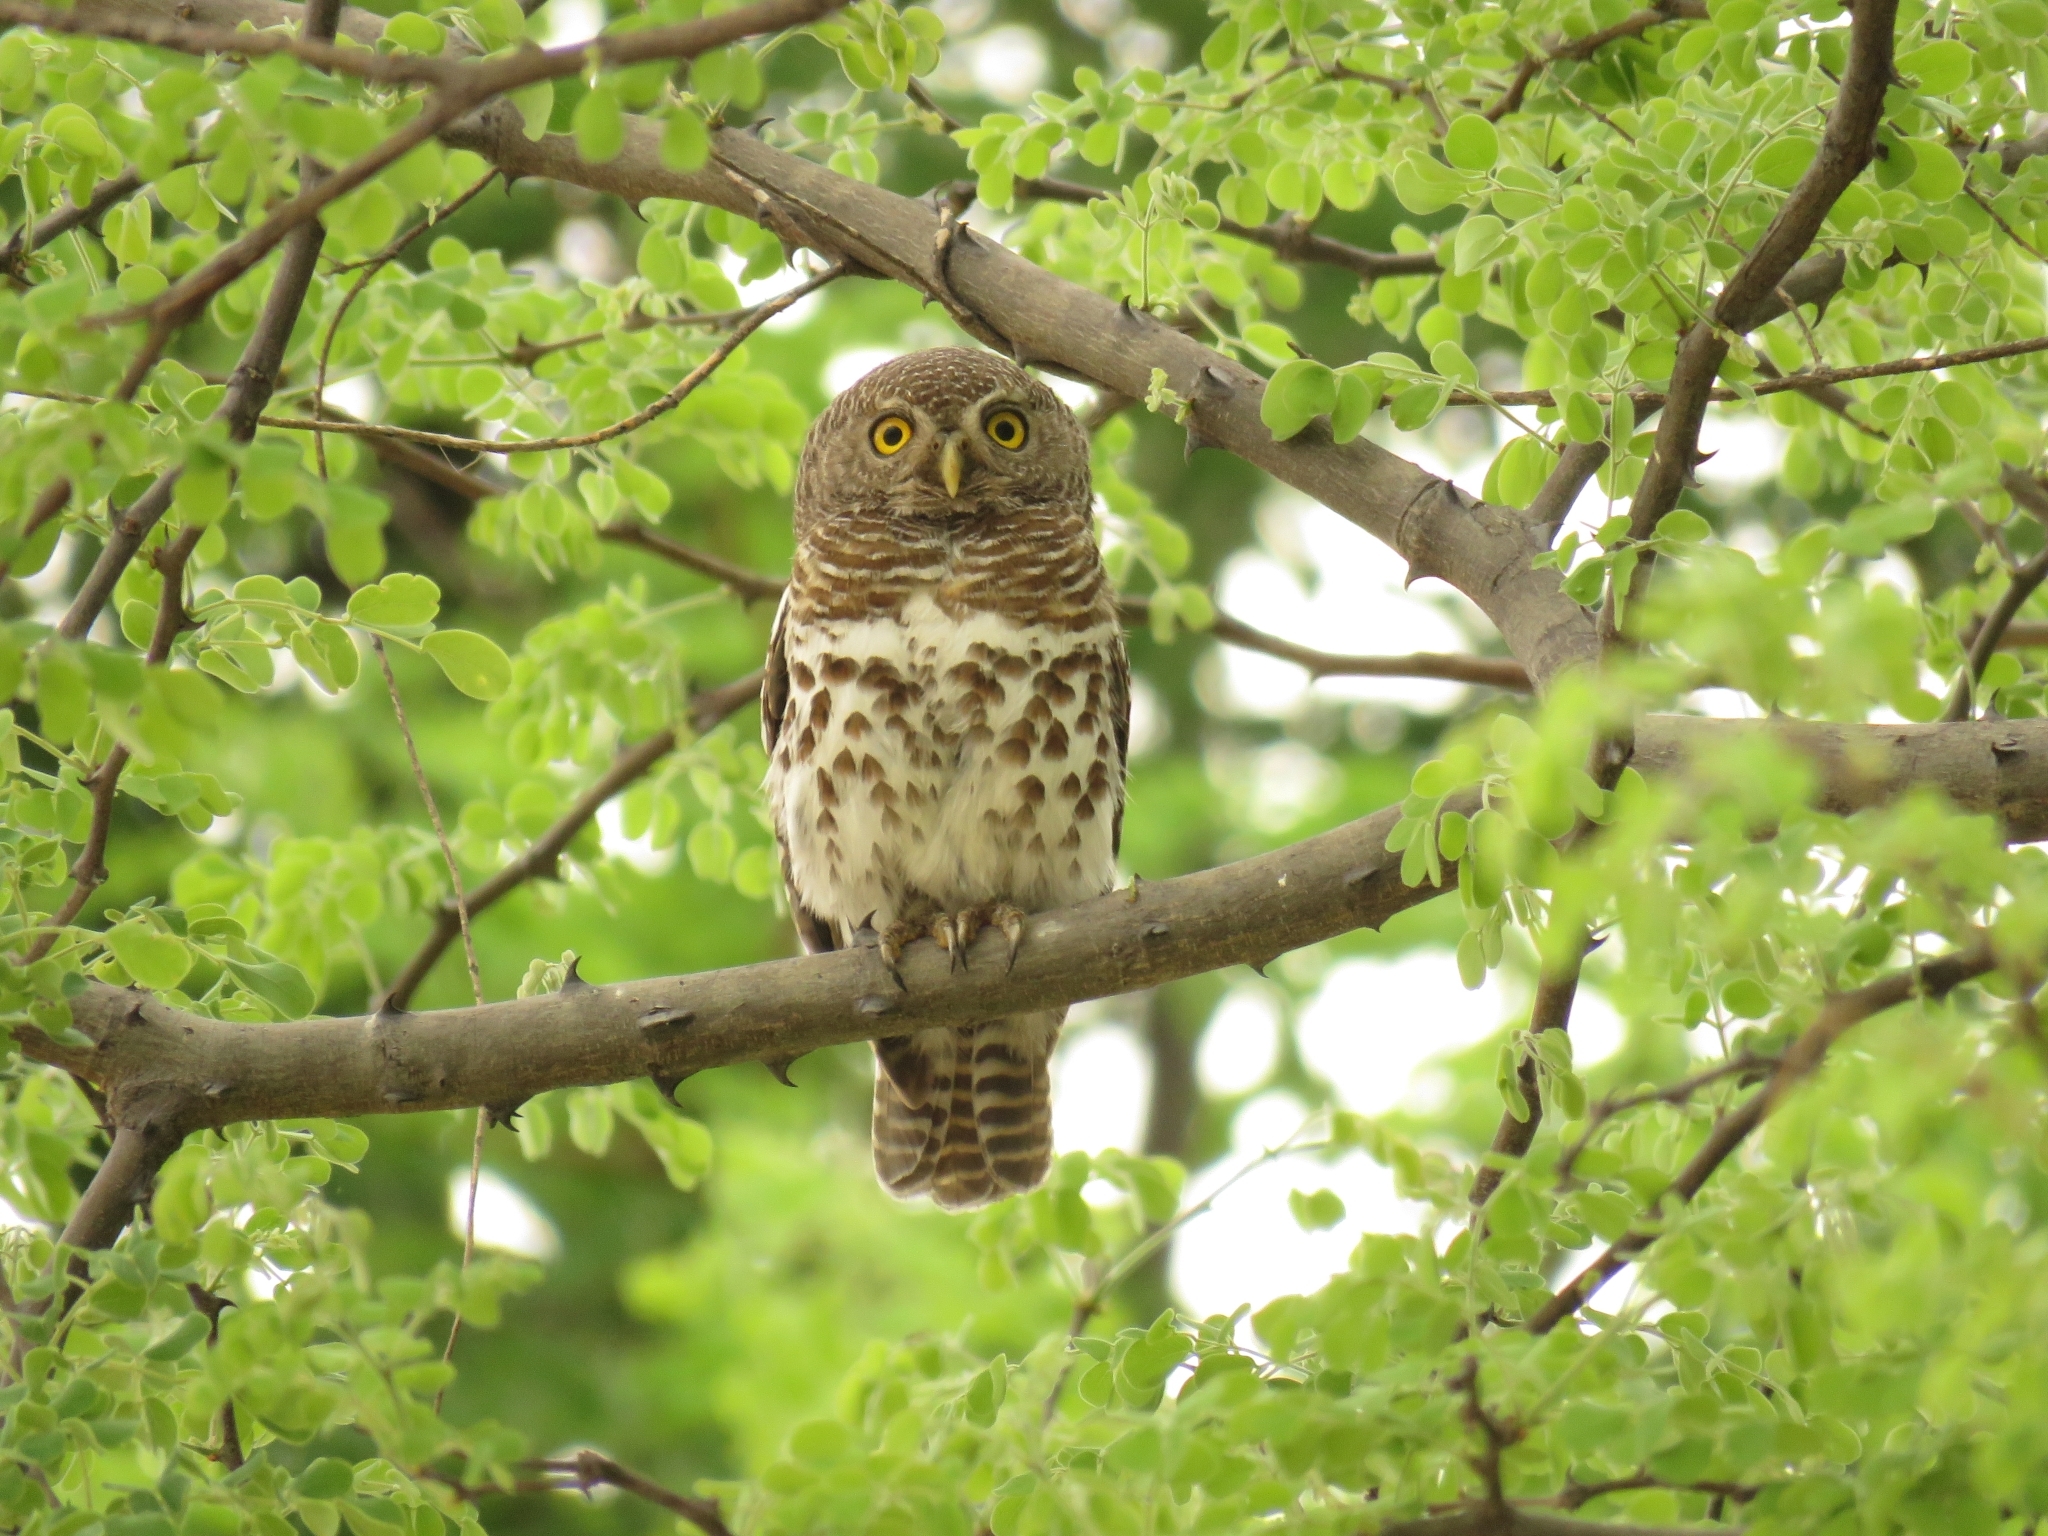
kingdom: Animalia
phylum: Chordata
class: Aves
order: Strigiformes
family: Strigidae
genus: Glaucidium
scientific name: Glaucidium capense
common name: African barred owlet
